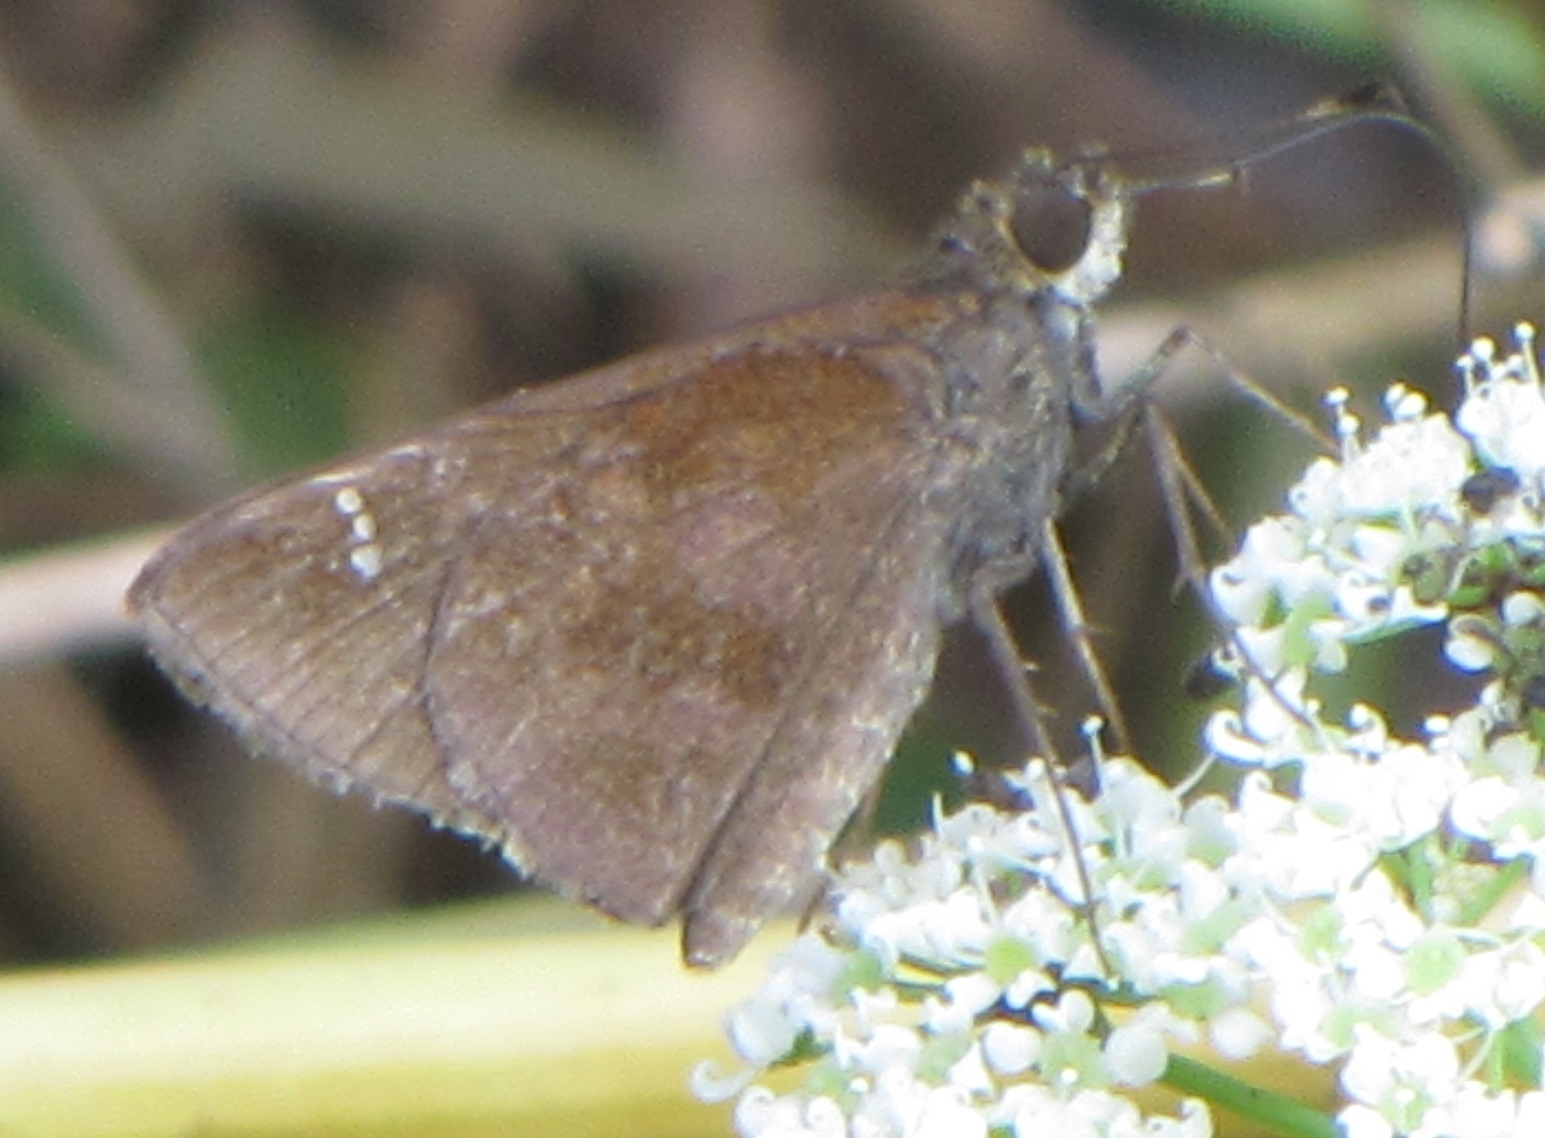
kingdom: Animalia
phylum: Arthropoda
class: Insecta
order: Lepidoptera
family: Hesperiidae
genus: Lerema
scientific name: Lerema accius
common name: Clouded skipper
